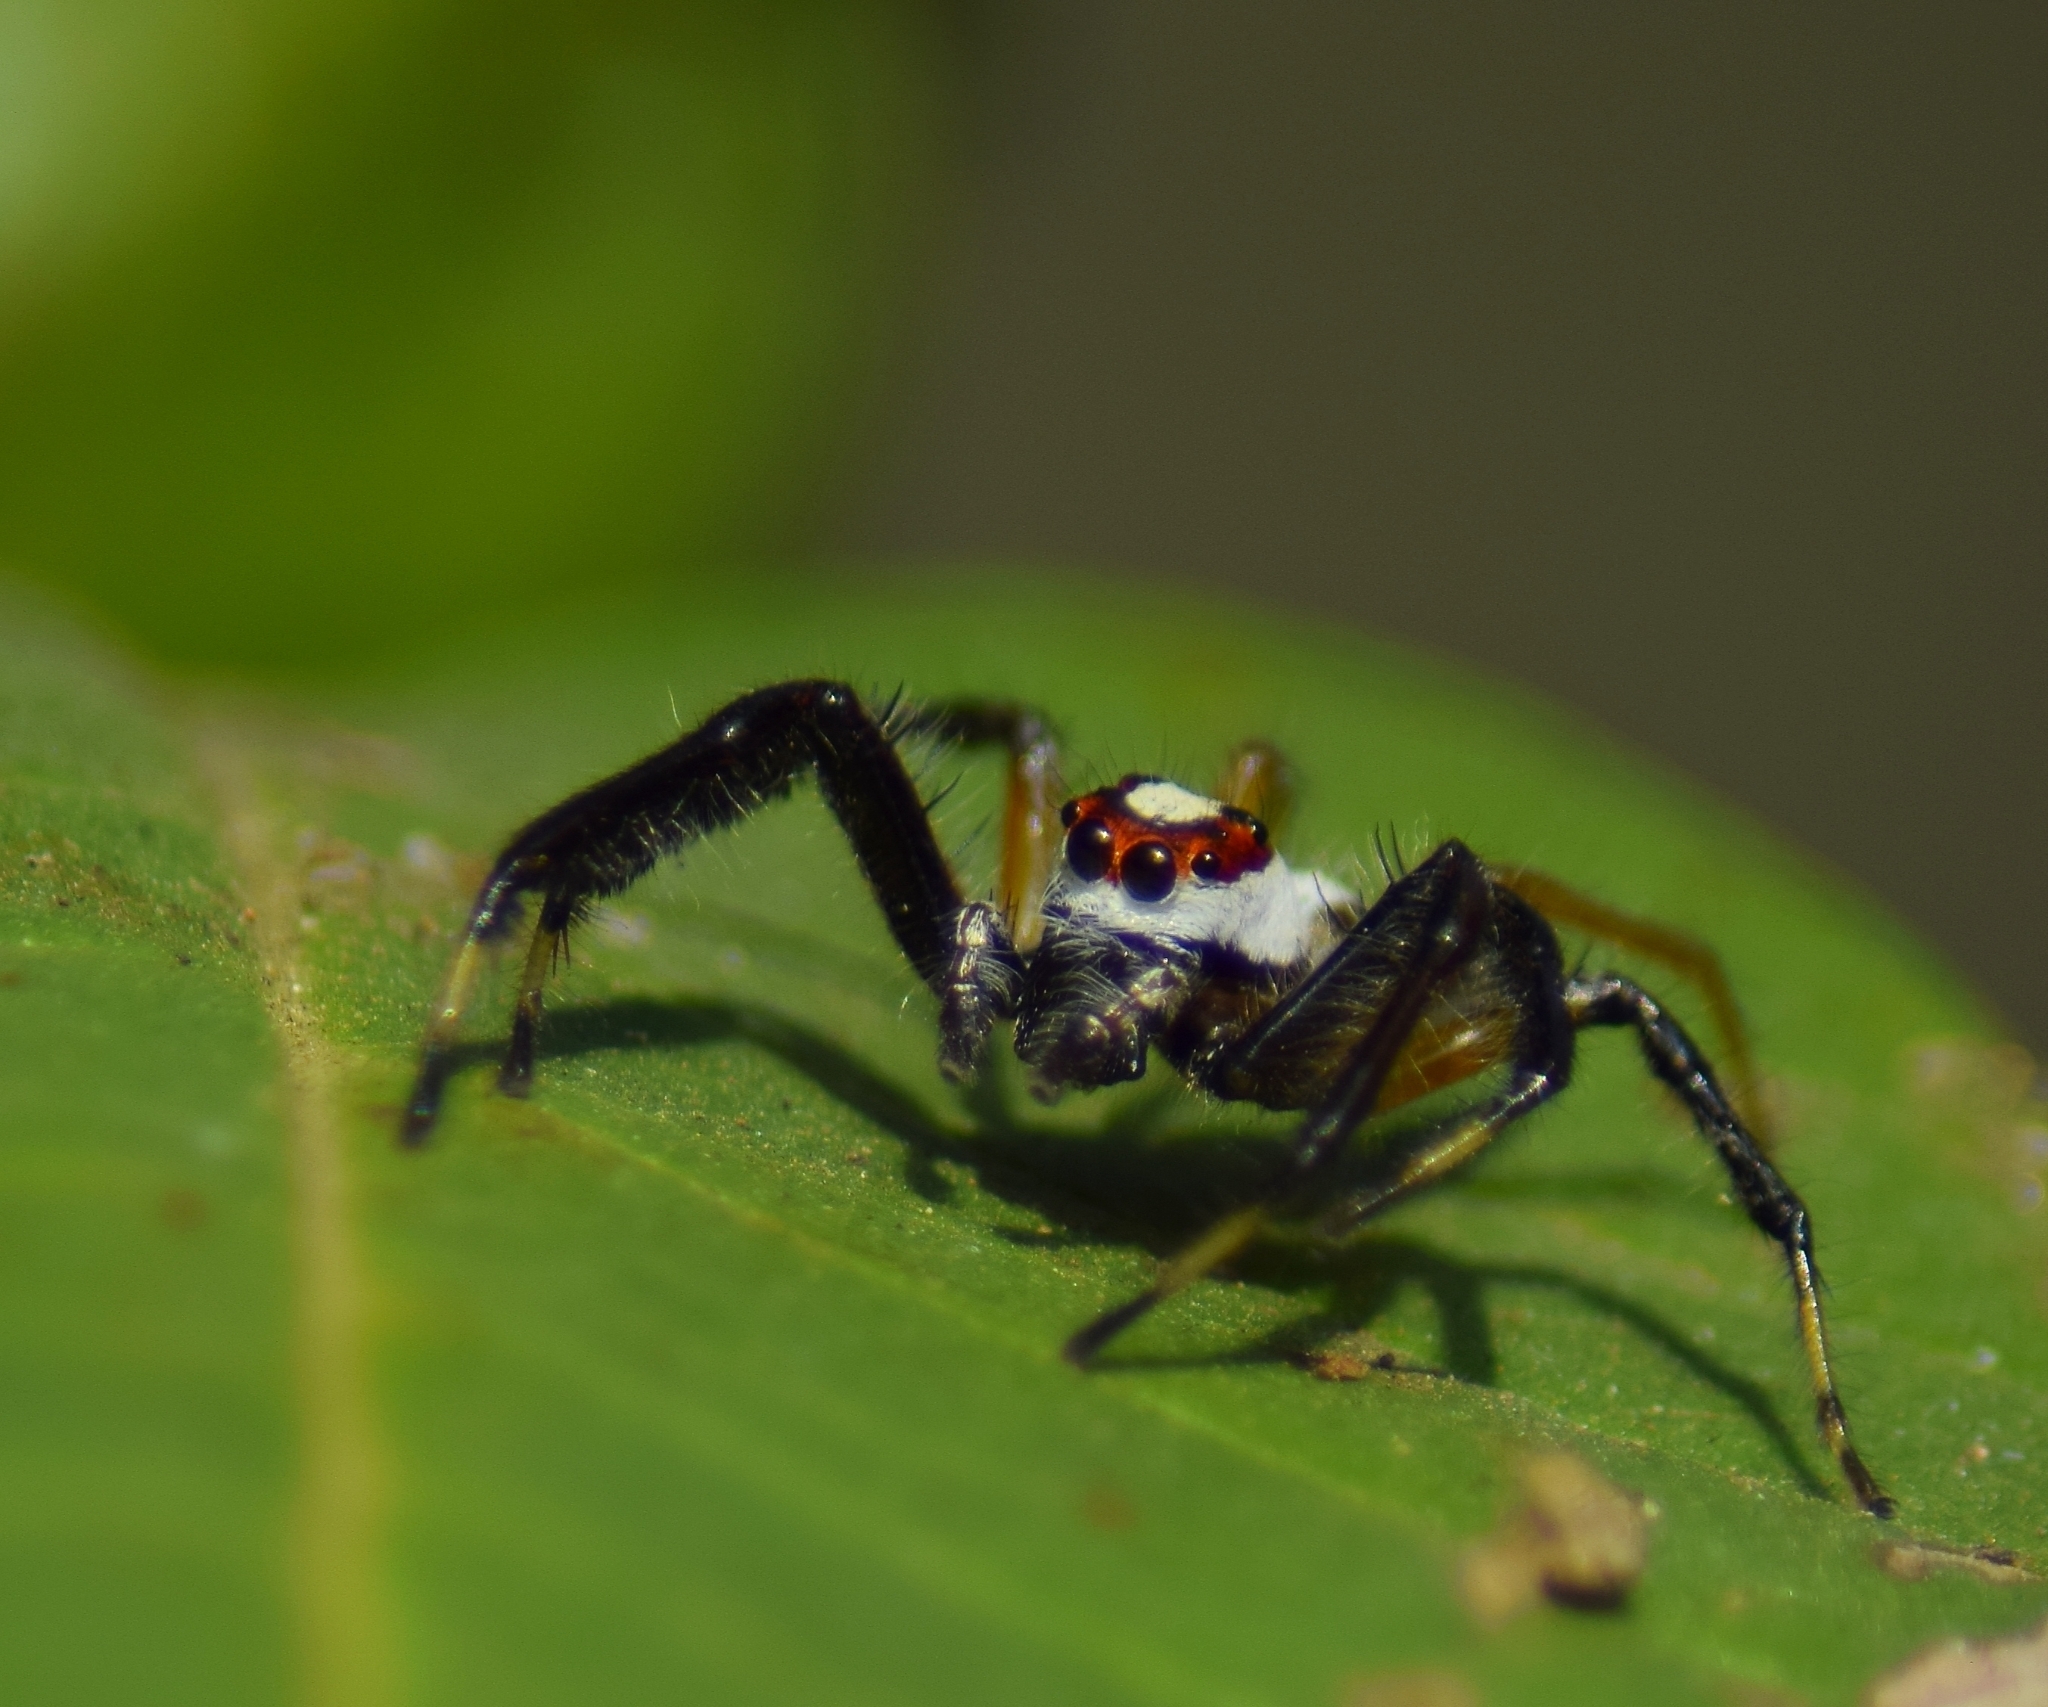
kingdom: Animalia
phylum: Arthropoda
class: Arachnida
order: Araneae
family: Salticidae
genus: Telamonia
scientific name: Telamonia dimidiata
